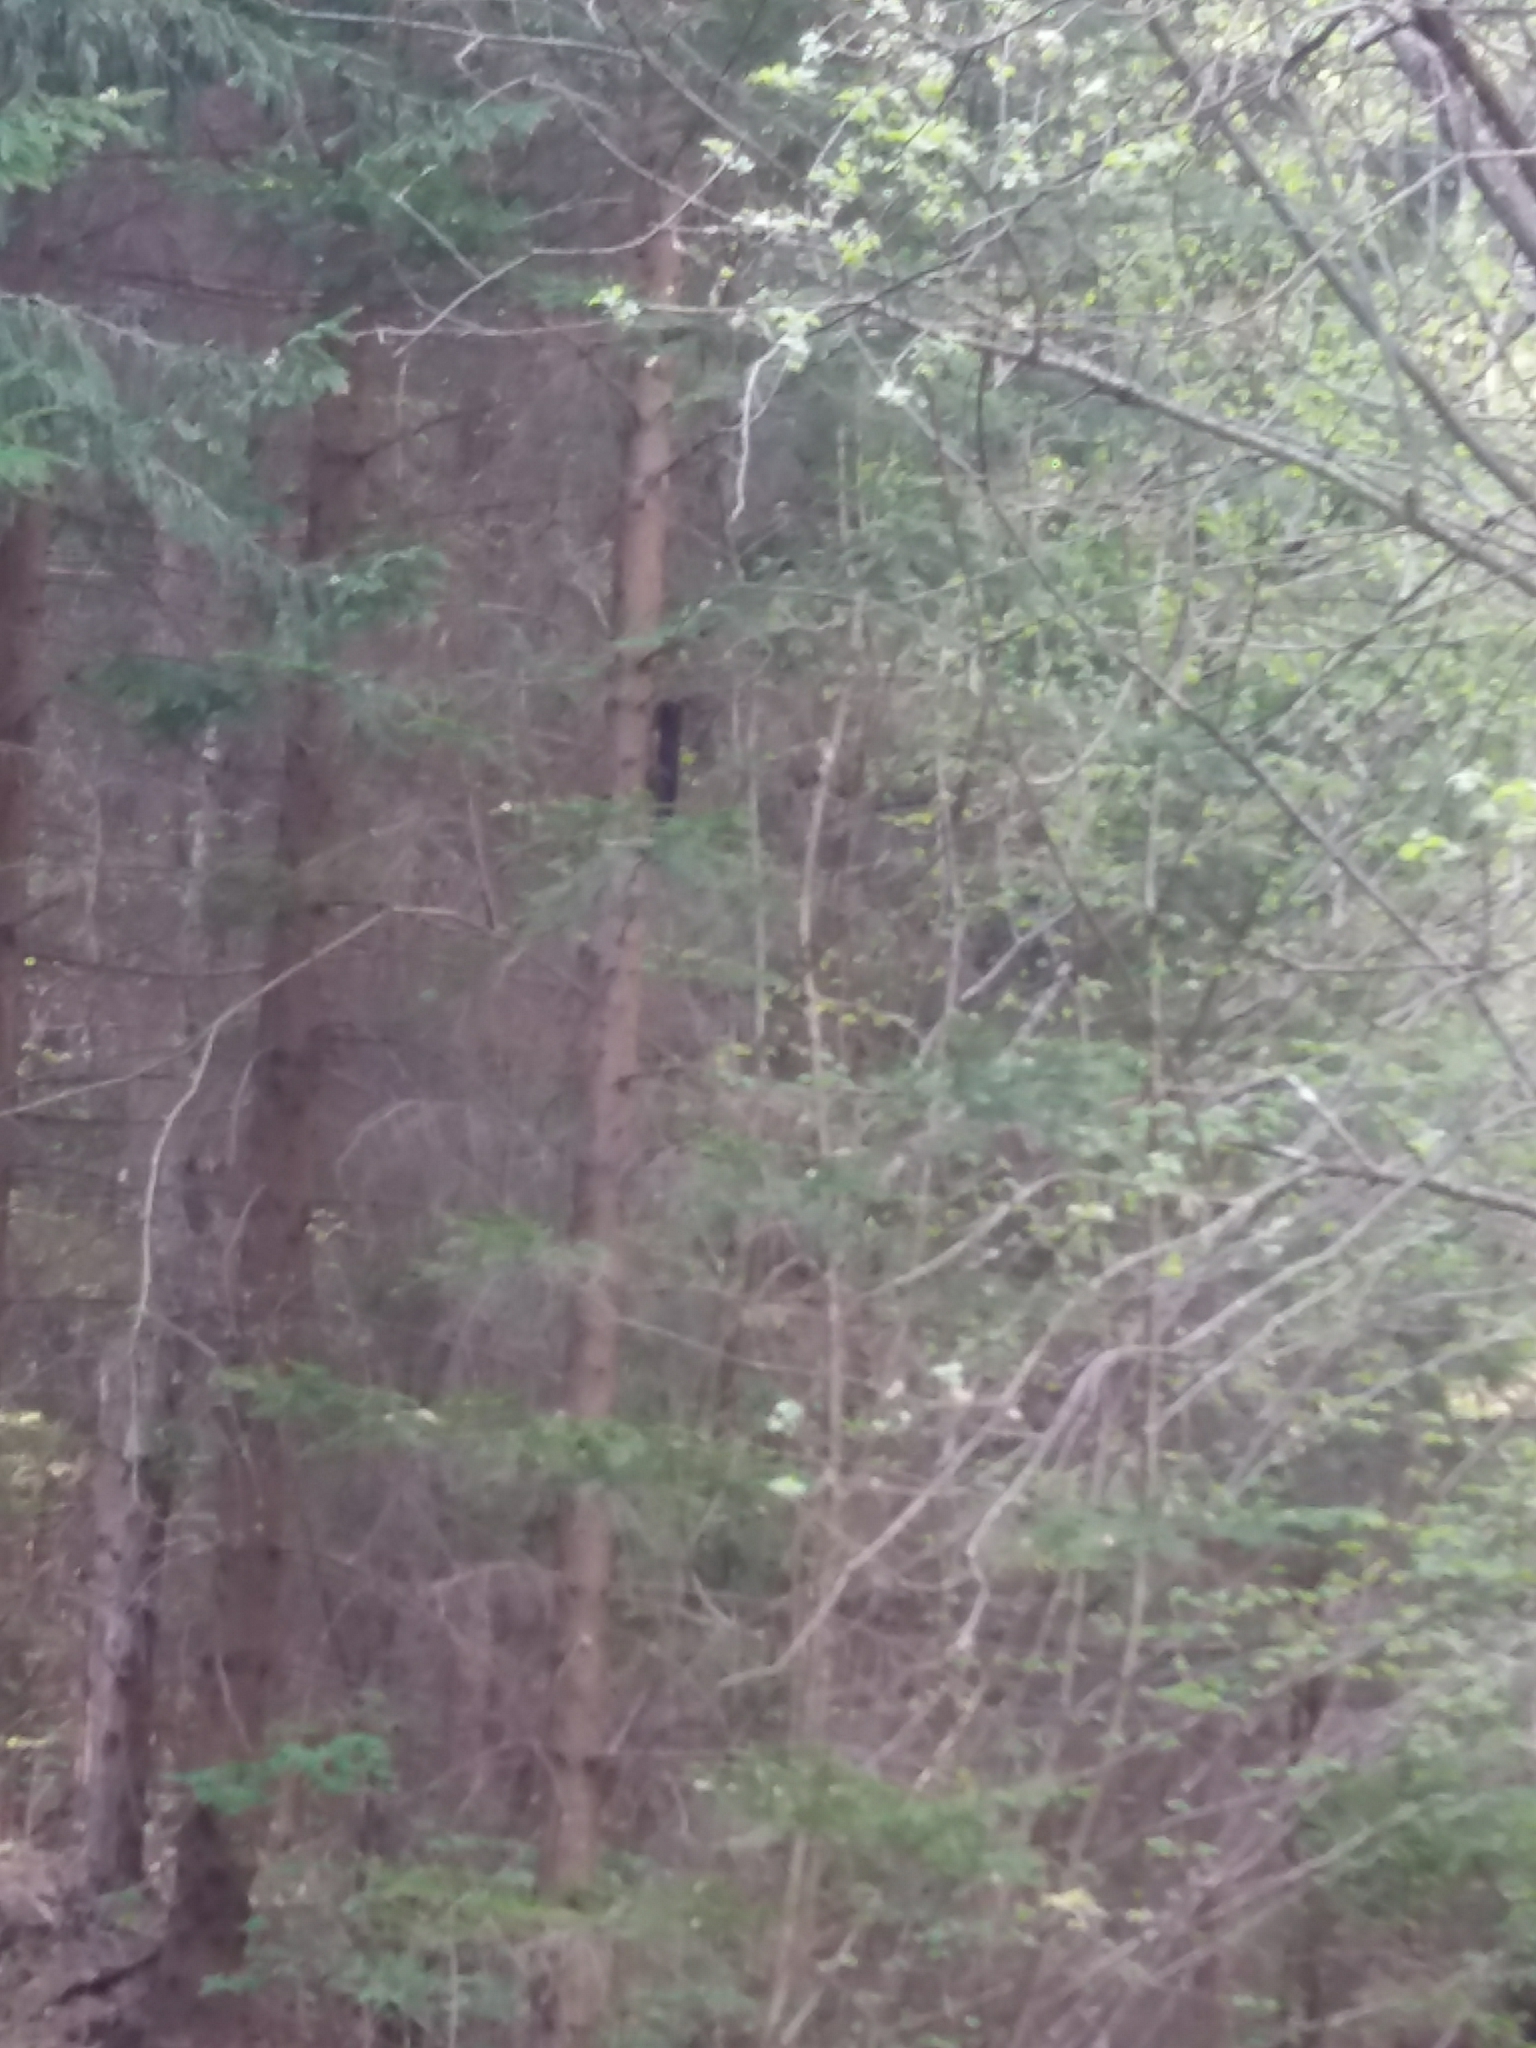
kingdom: Animalia
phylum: Chordata
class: Mammalia
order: Rodentia
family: Sciuridae
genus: Sciurus
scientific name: Sciurus vulgaris
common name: Eurasian red squirrel
